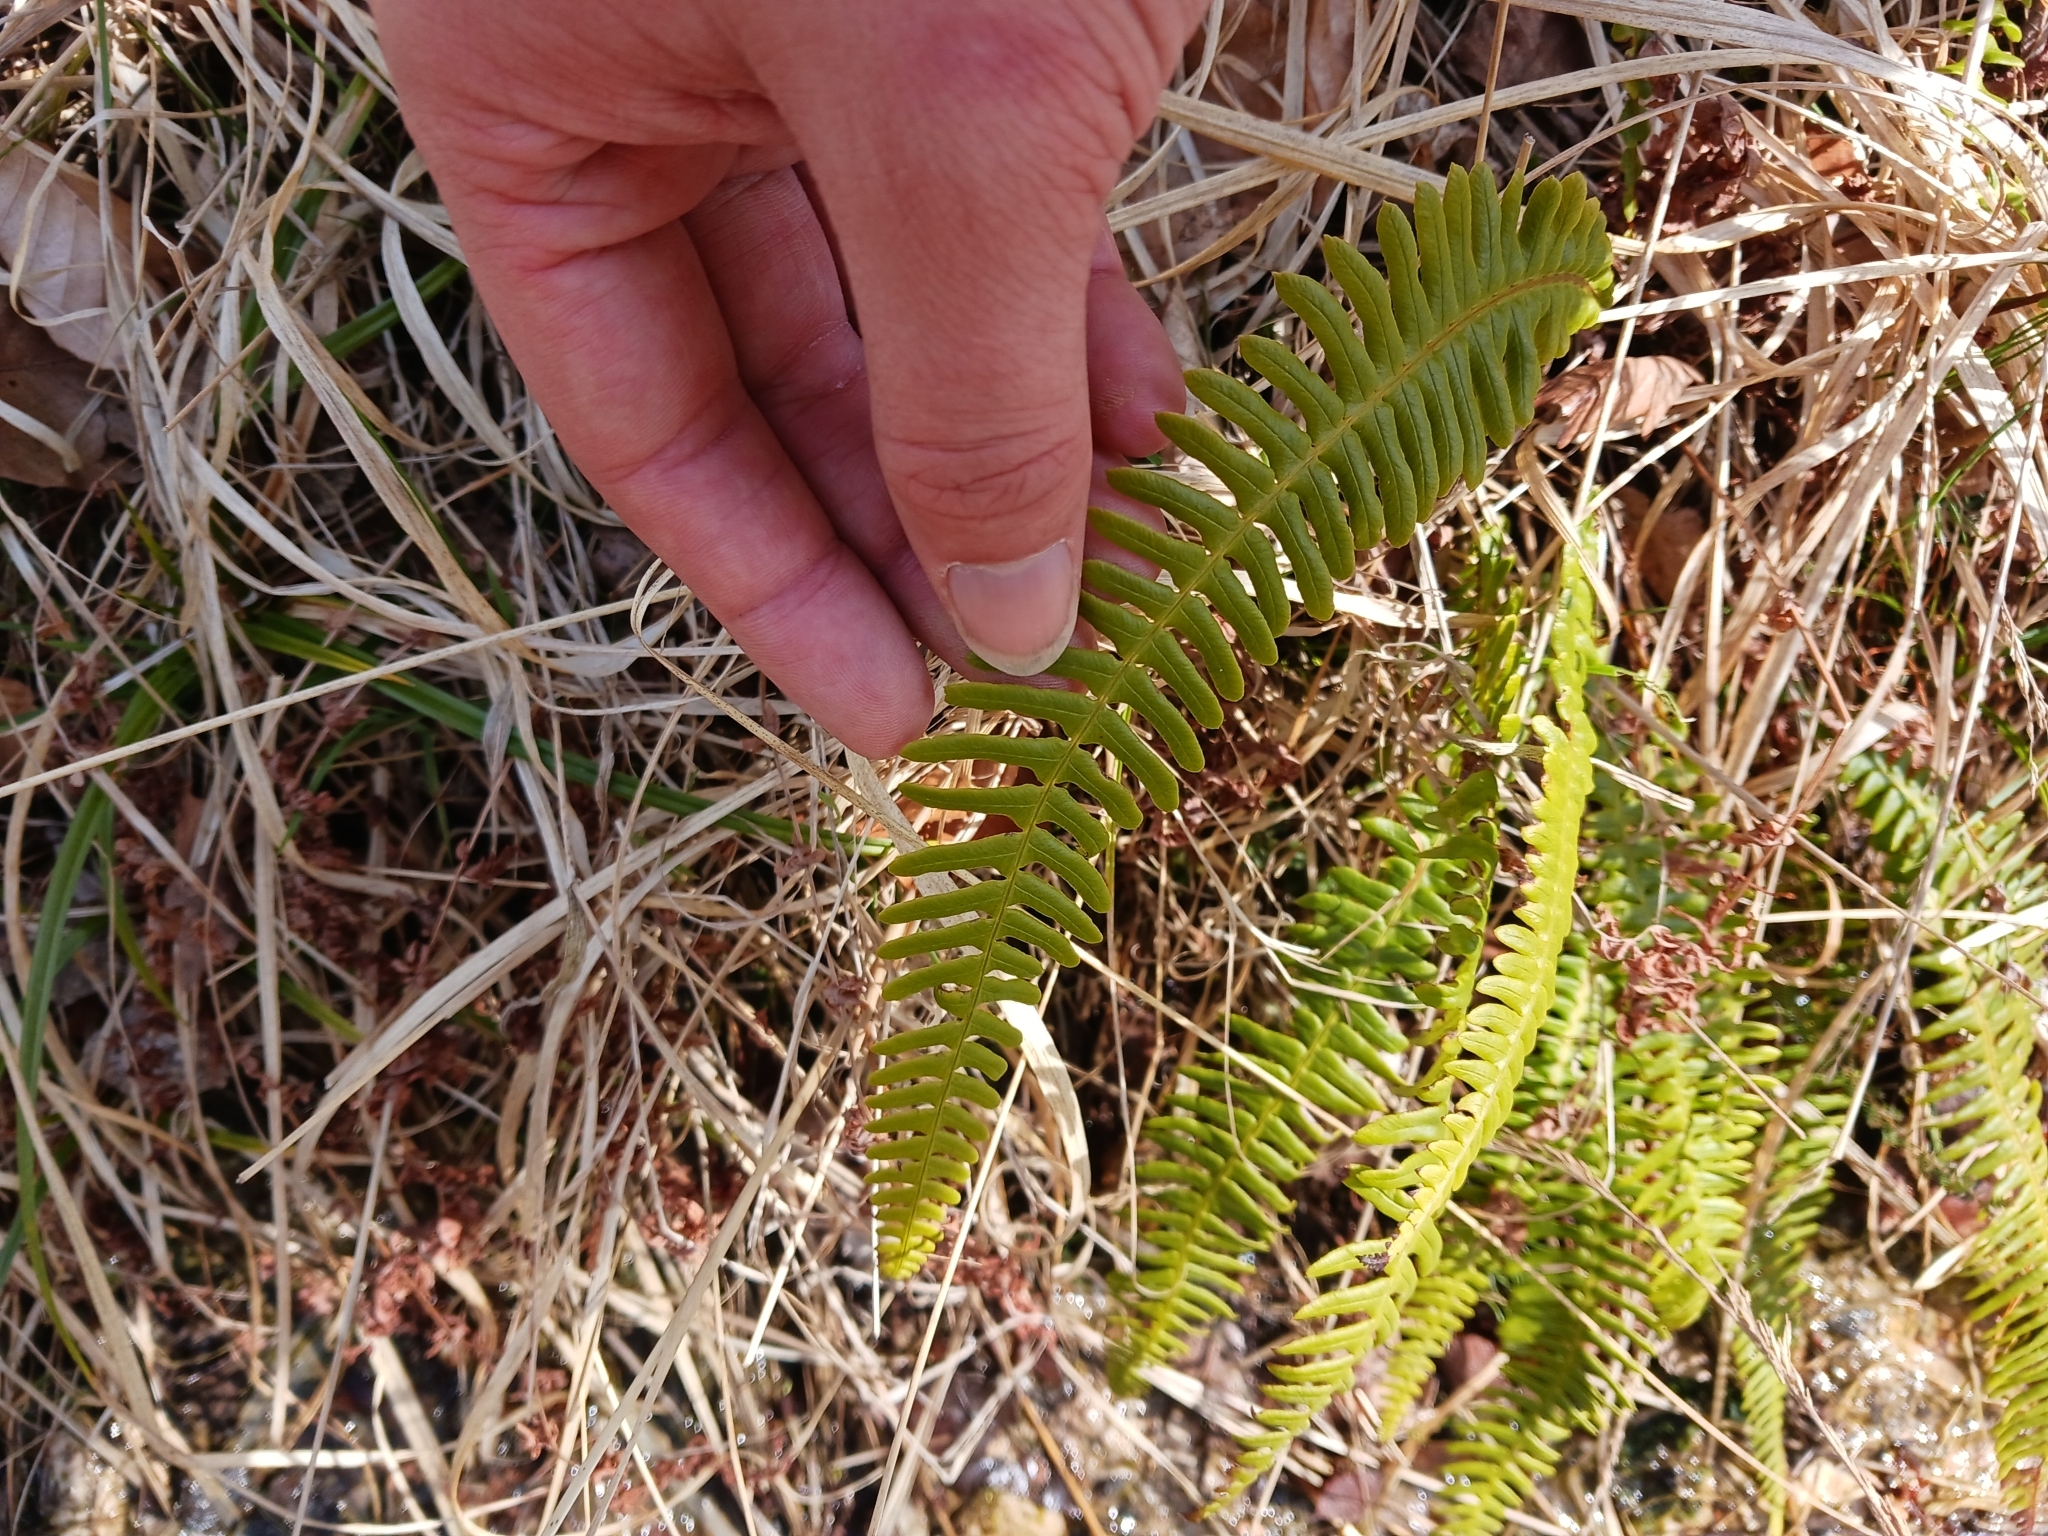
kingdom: Plantae
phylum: Tracheophyta
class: Polypodiopsida
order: Polypodiales
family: Blechnaceae
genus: Struthiopteris
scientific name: Struthiopteris spicant
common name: Deer fern
